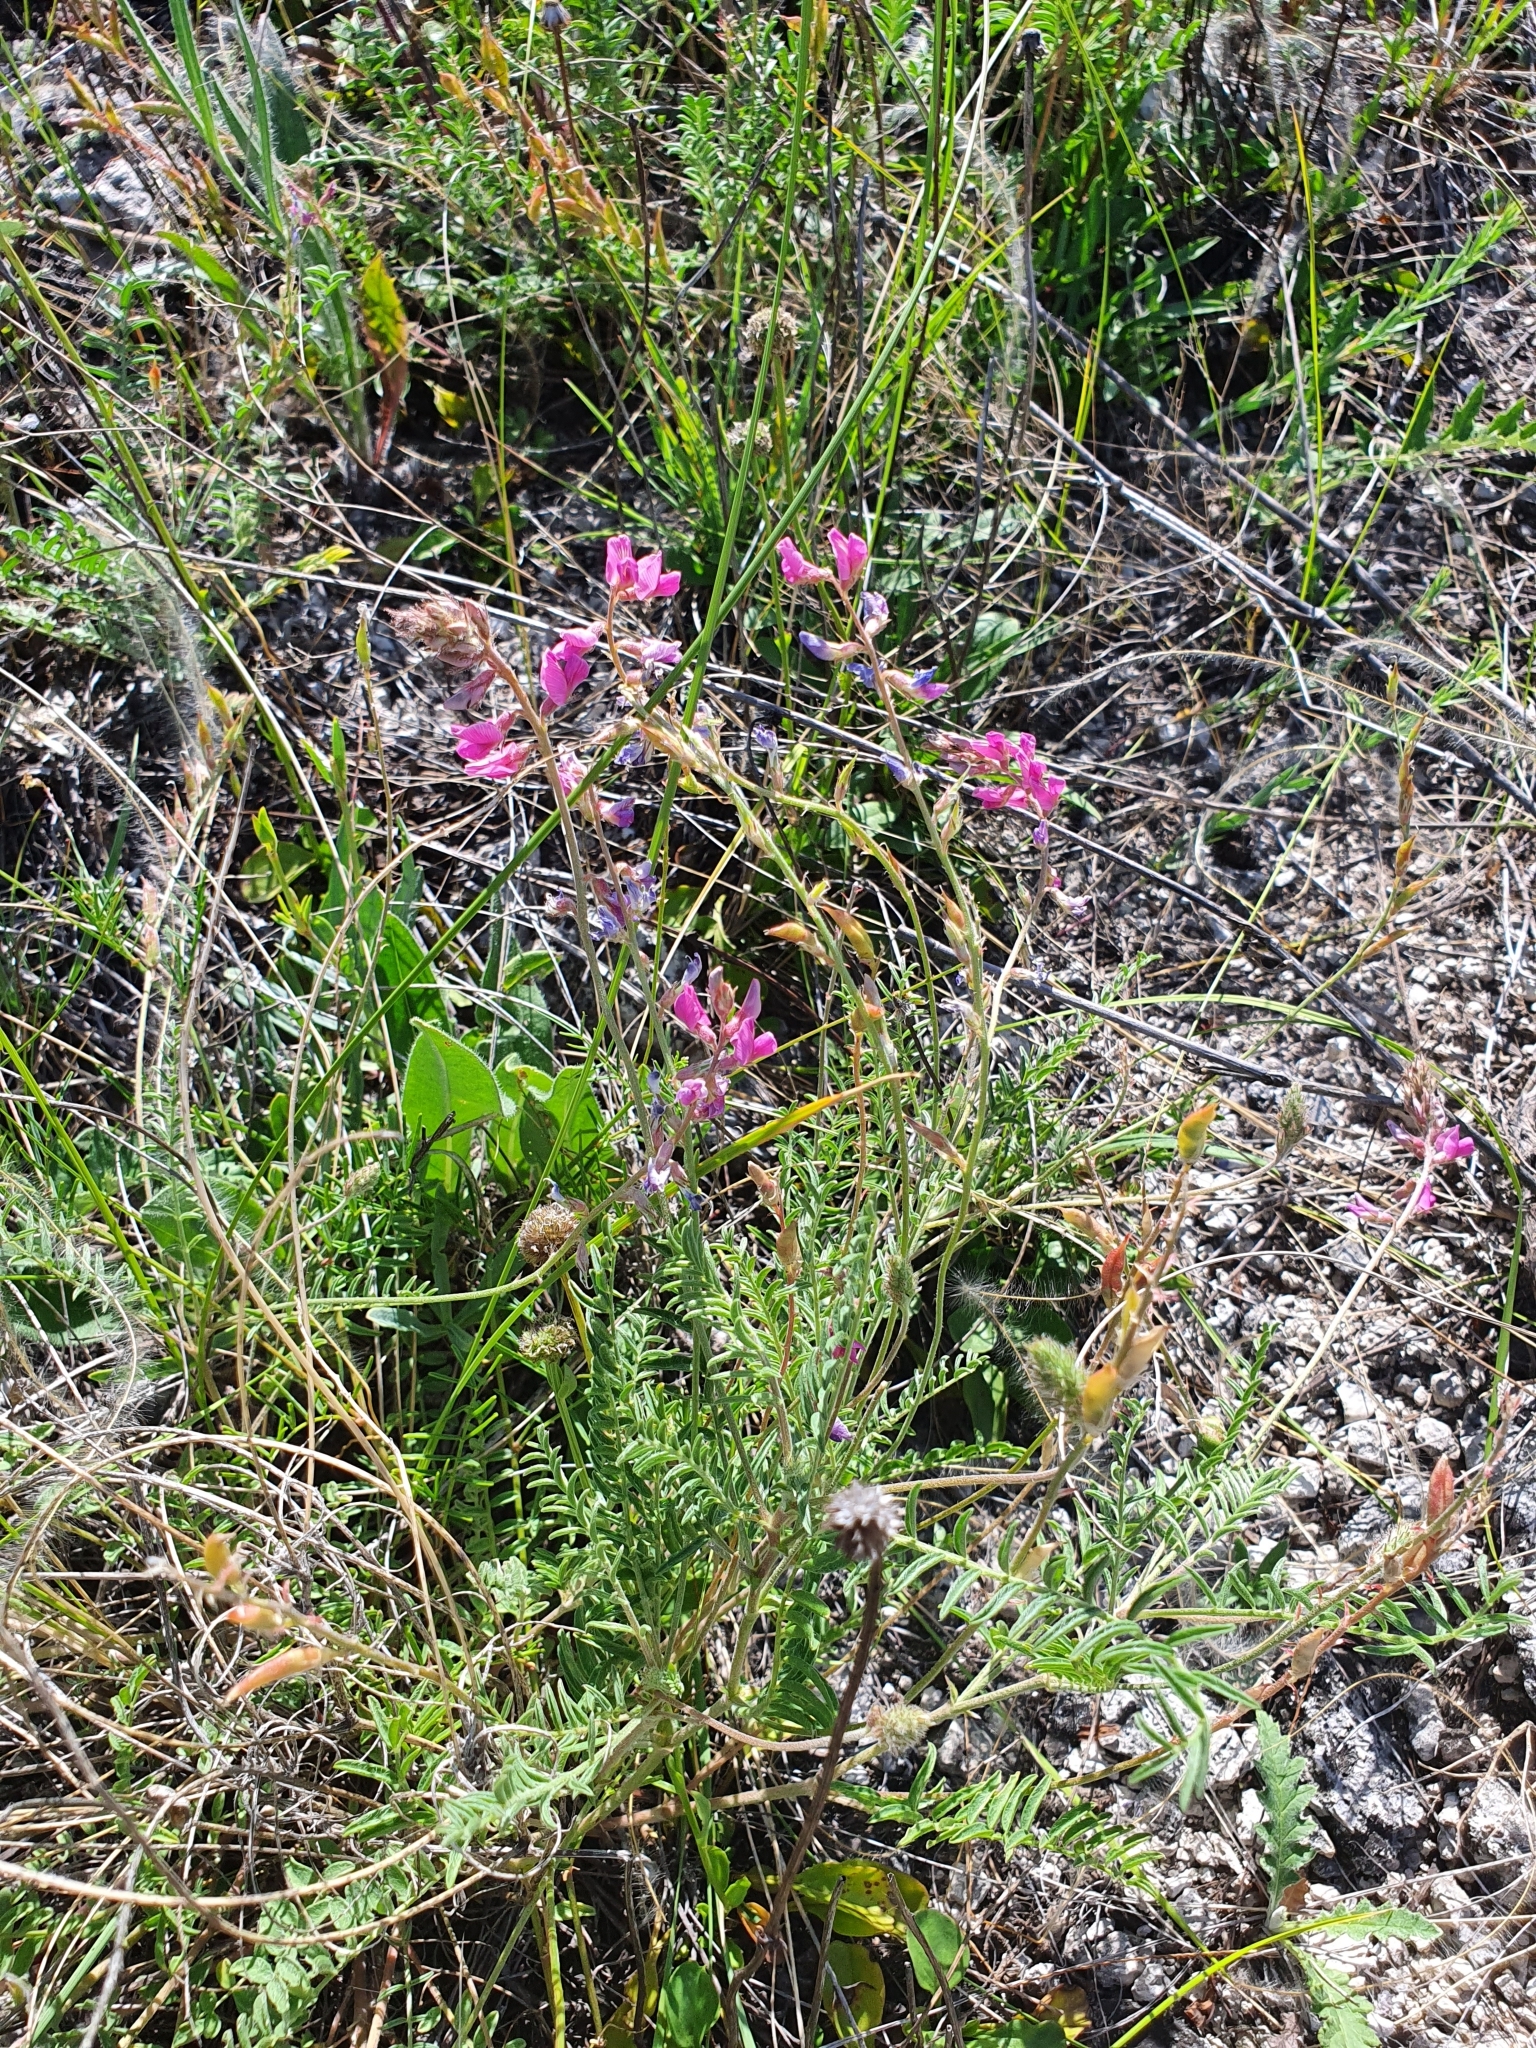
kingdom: Plantae
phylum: Tracheophyta
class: Magnoliopsida
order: Fabales
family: Fabaceae
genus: Oxytropis
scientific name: Oxytropis floribunda
